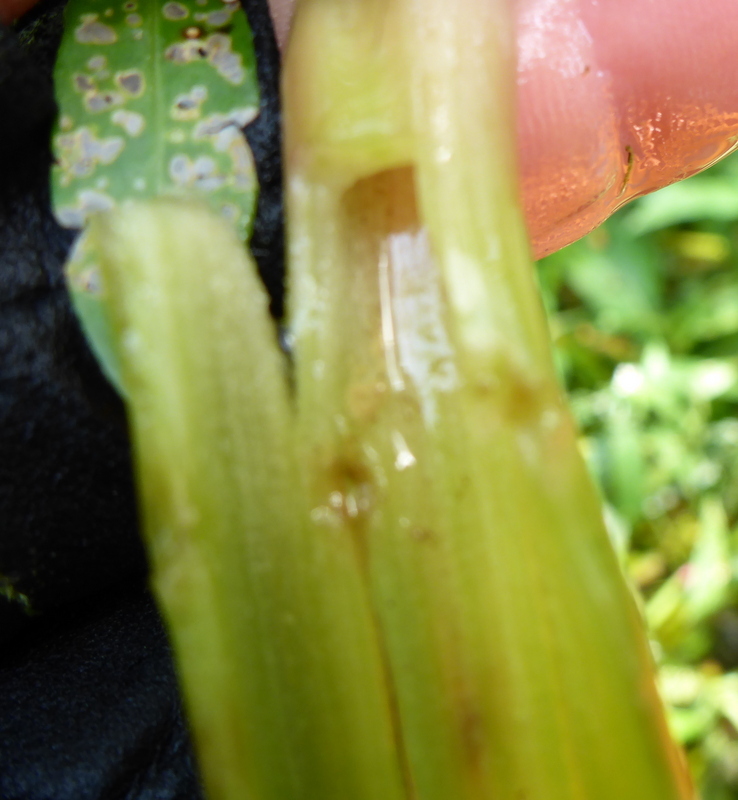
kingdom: Animalia
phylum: Arthropoda
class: Insecta
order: Coleoptera
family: Chrysomelidae
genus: Agasicles
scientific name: Agasicles hygrophila
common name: Alligatorweed flea beetle
